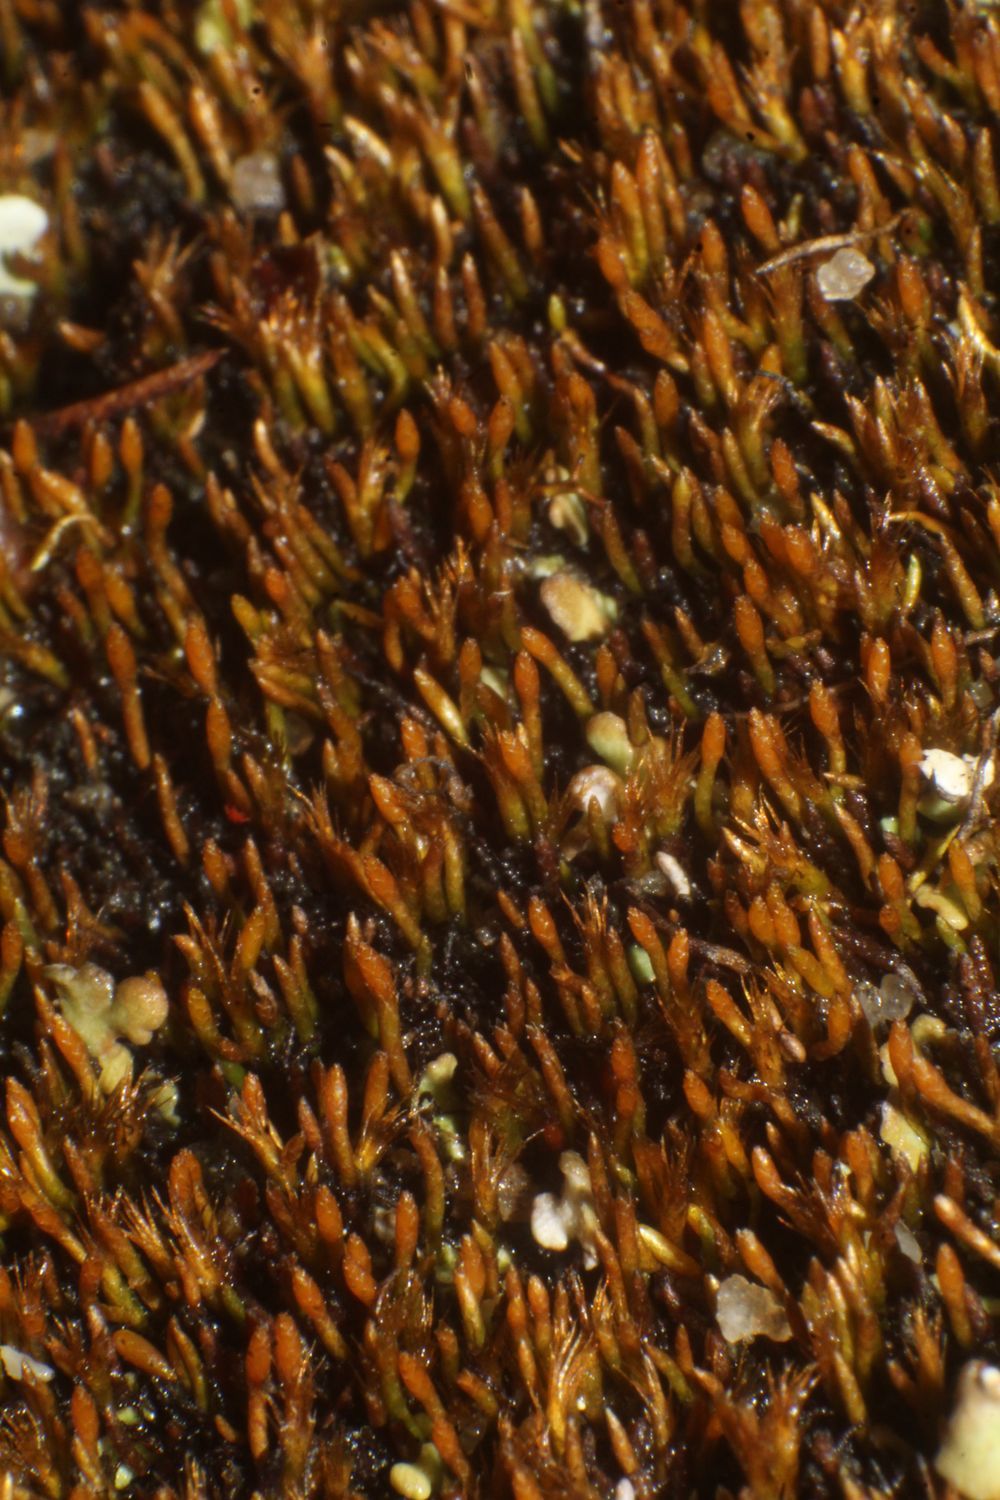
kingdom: Plantae
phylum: Bryophyta
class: Bryopsida
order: Dicranales
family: Dicranellaceae
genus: Eccremidium
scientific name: Eccremidium pulchellum
